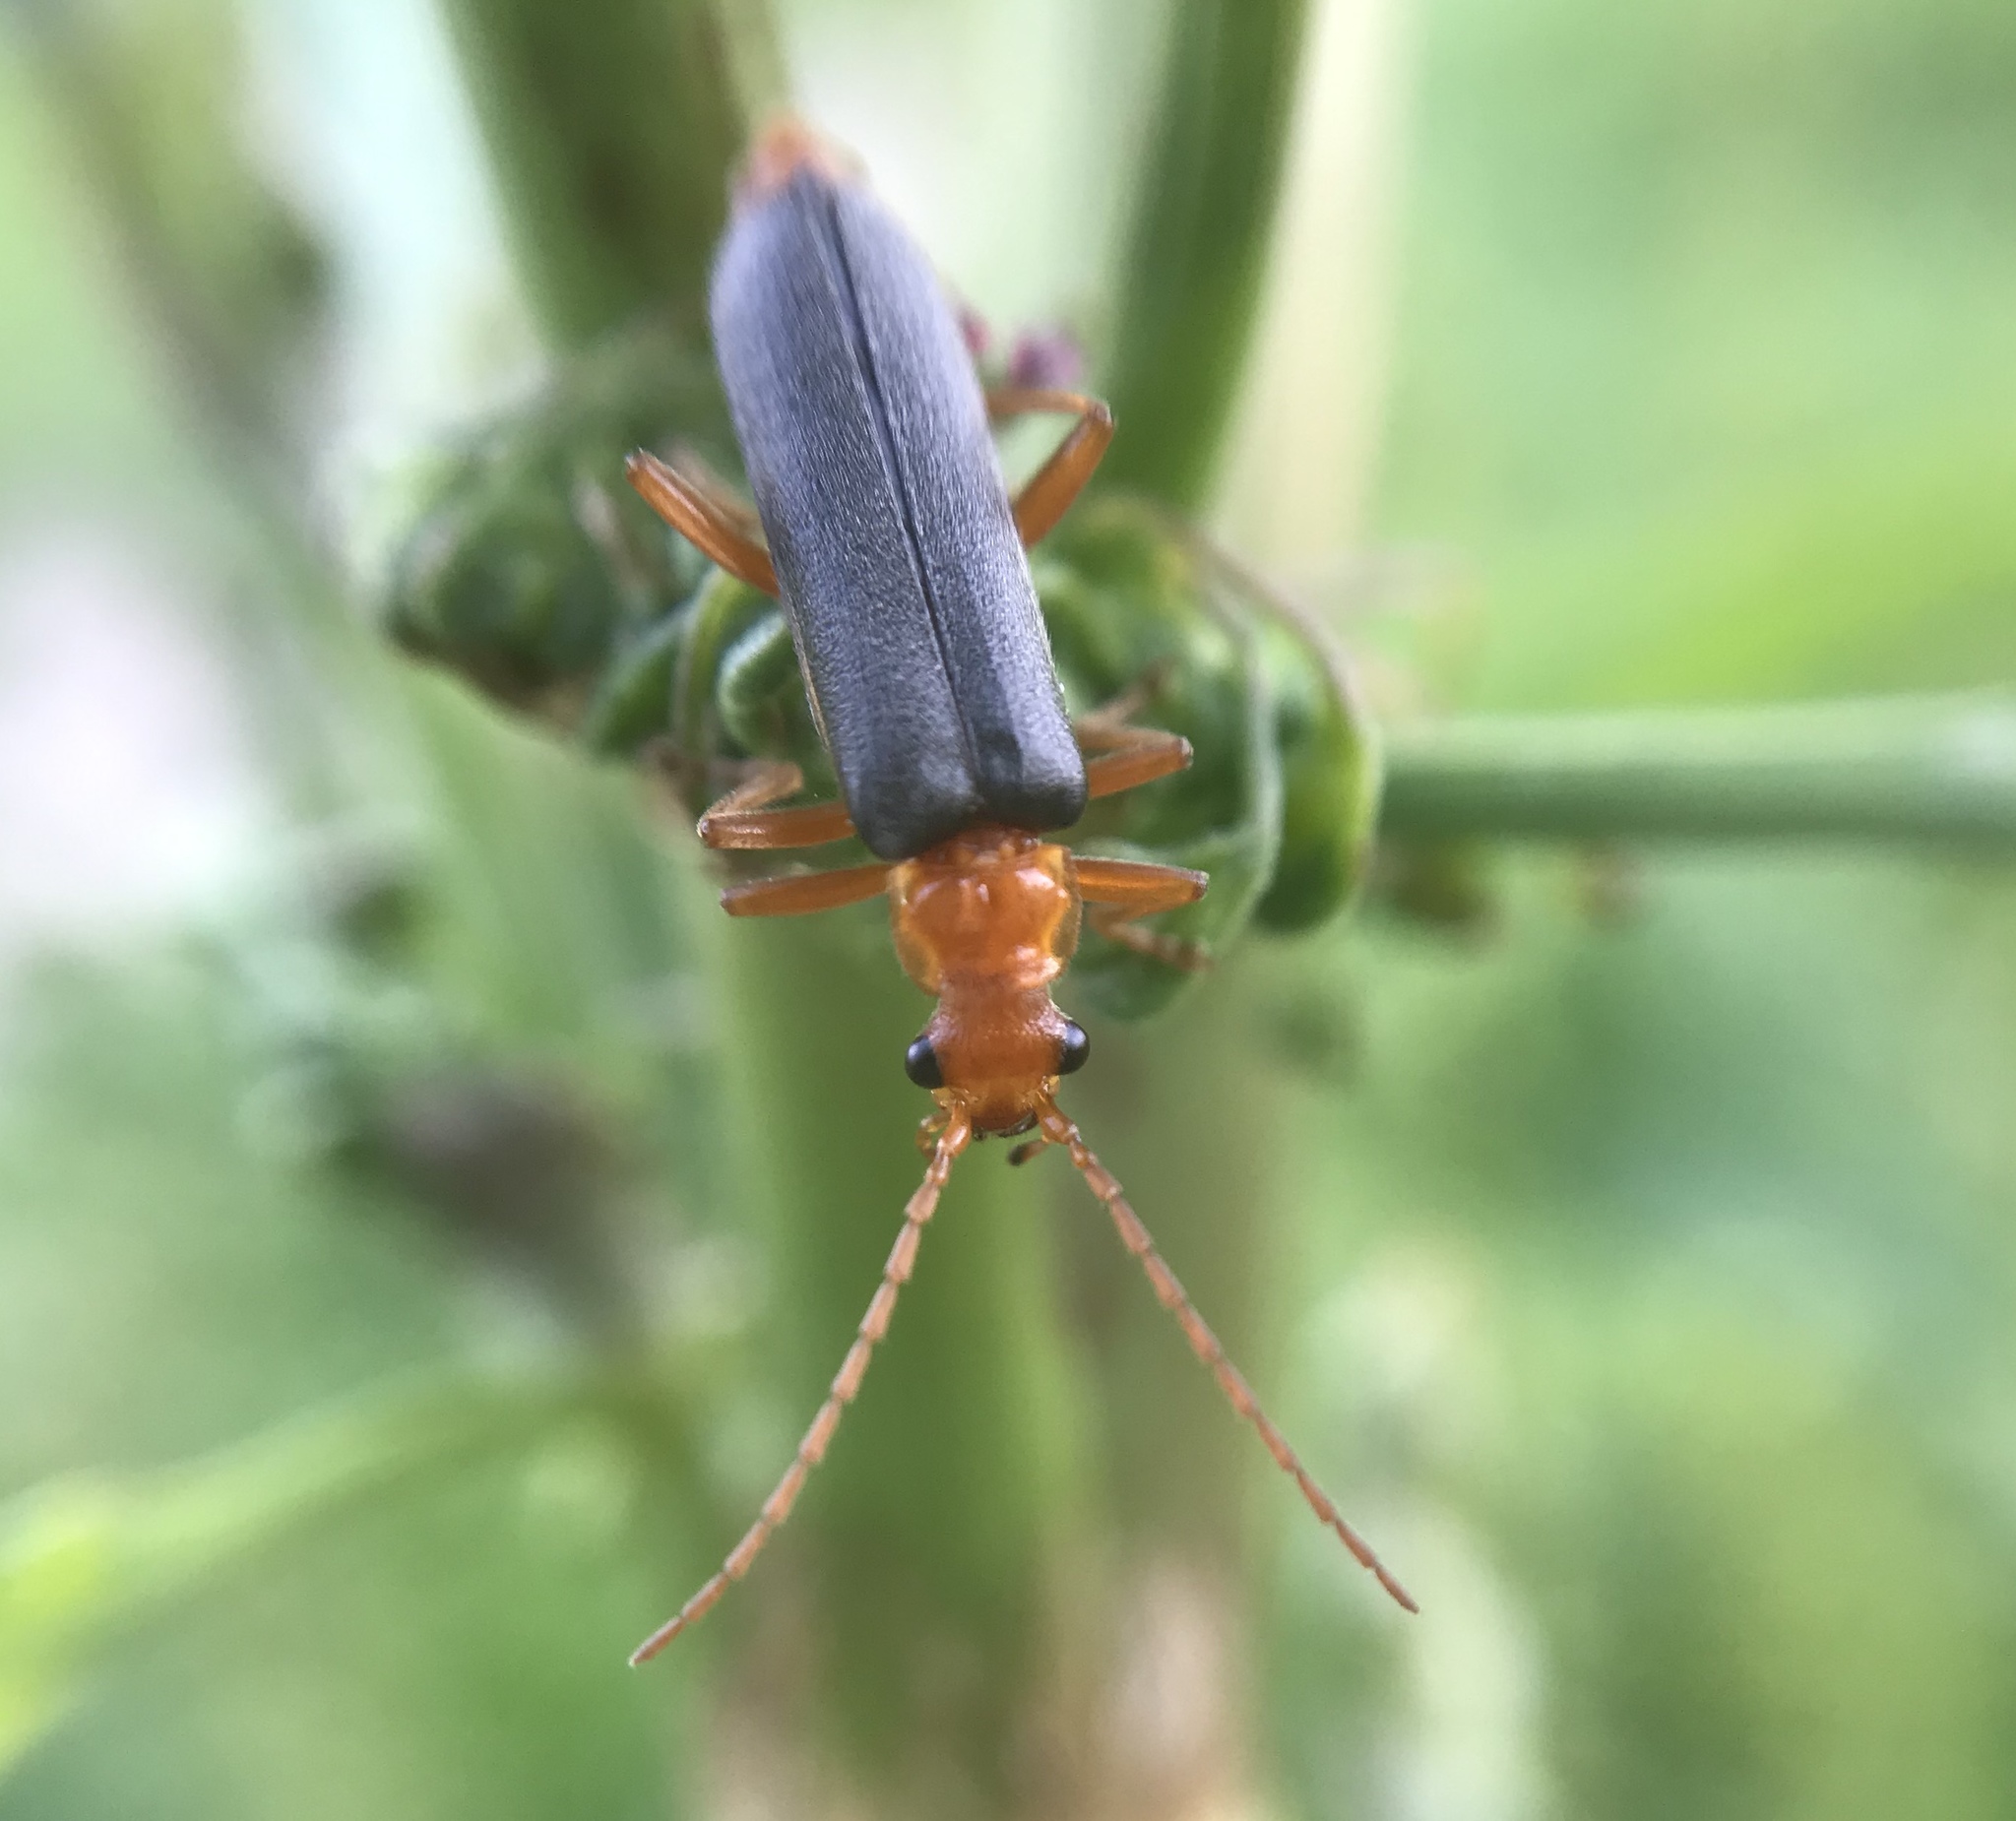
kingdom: Animalia
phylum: Arthropoda
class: Insecta
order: Coleoptera
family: Cantharidae
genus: Podabrus
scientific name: Podabrus pruinosus
